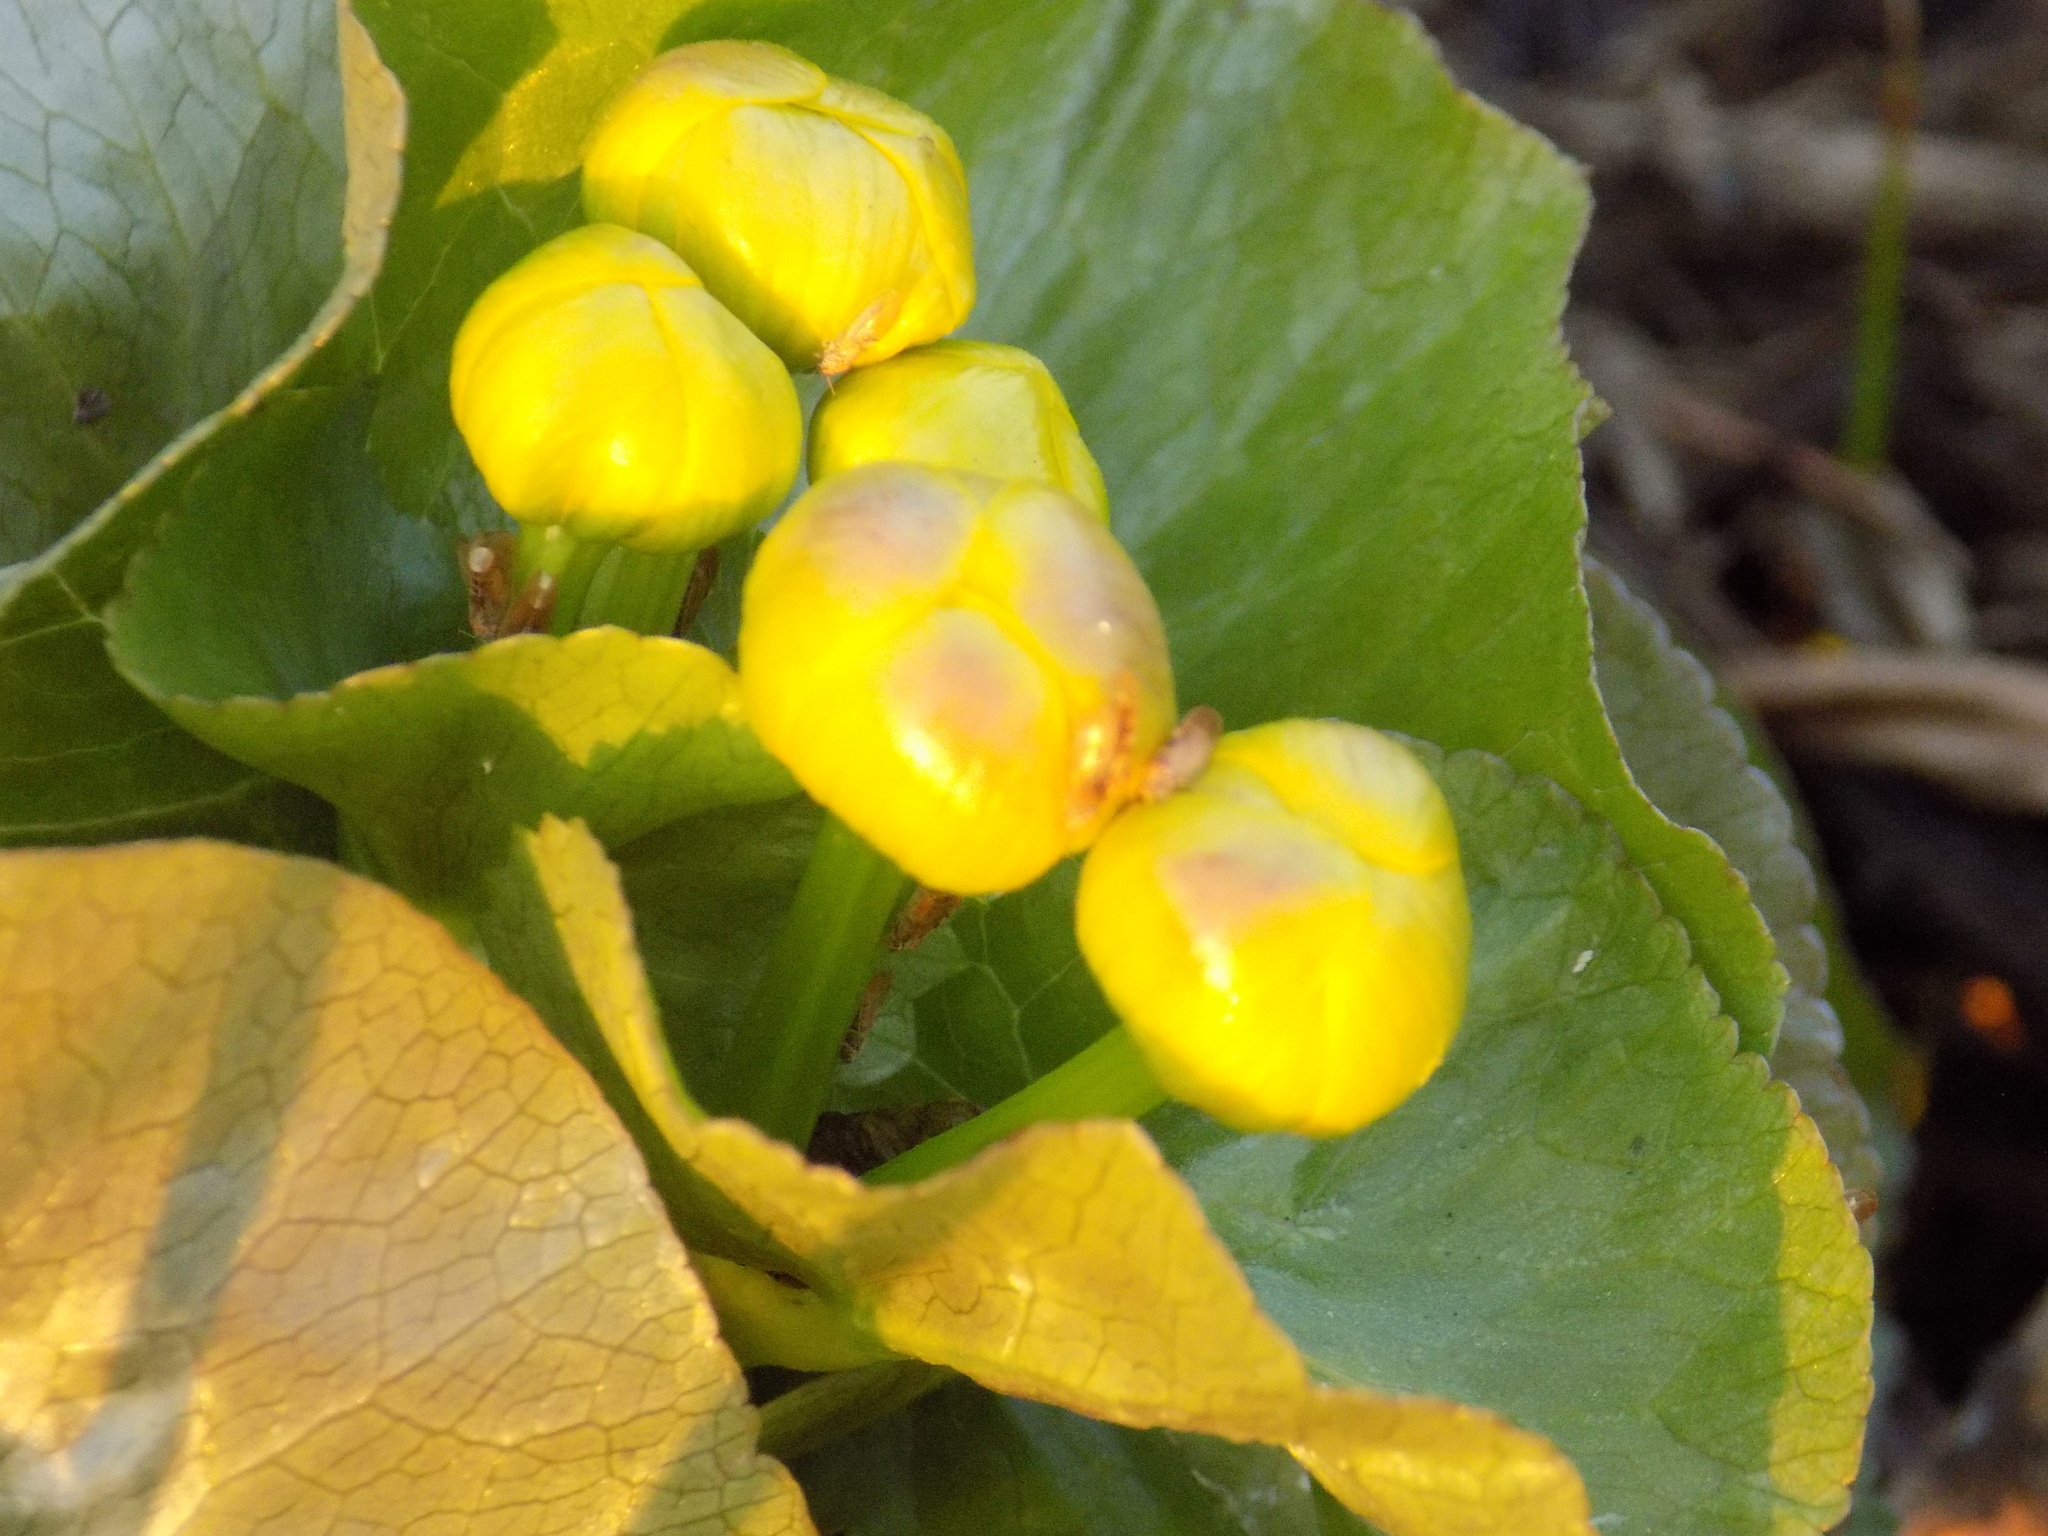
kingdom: Plantae
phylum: Tracheophyta
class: Magnoliopsida
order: Ranunculales
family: Ranunculaceae
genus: Caltha
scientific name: Caltha palustris
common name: Marsh marigold
